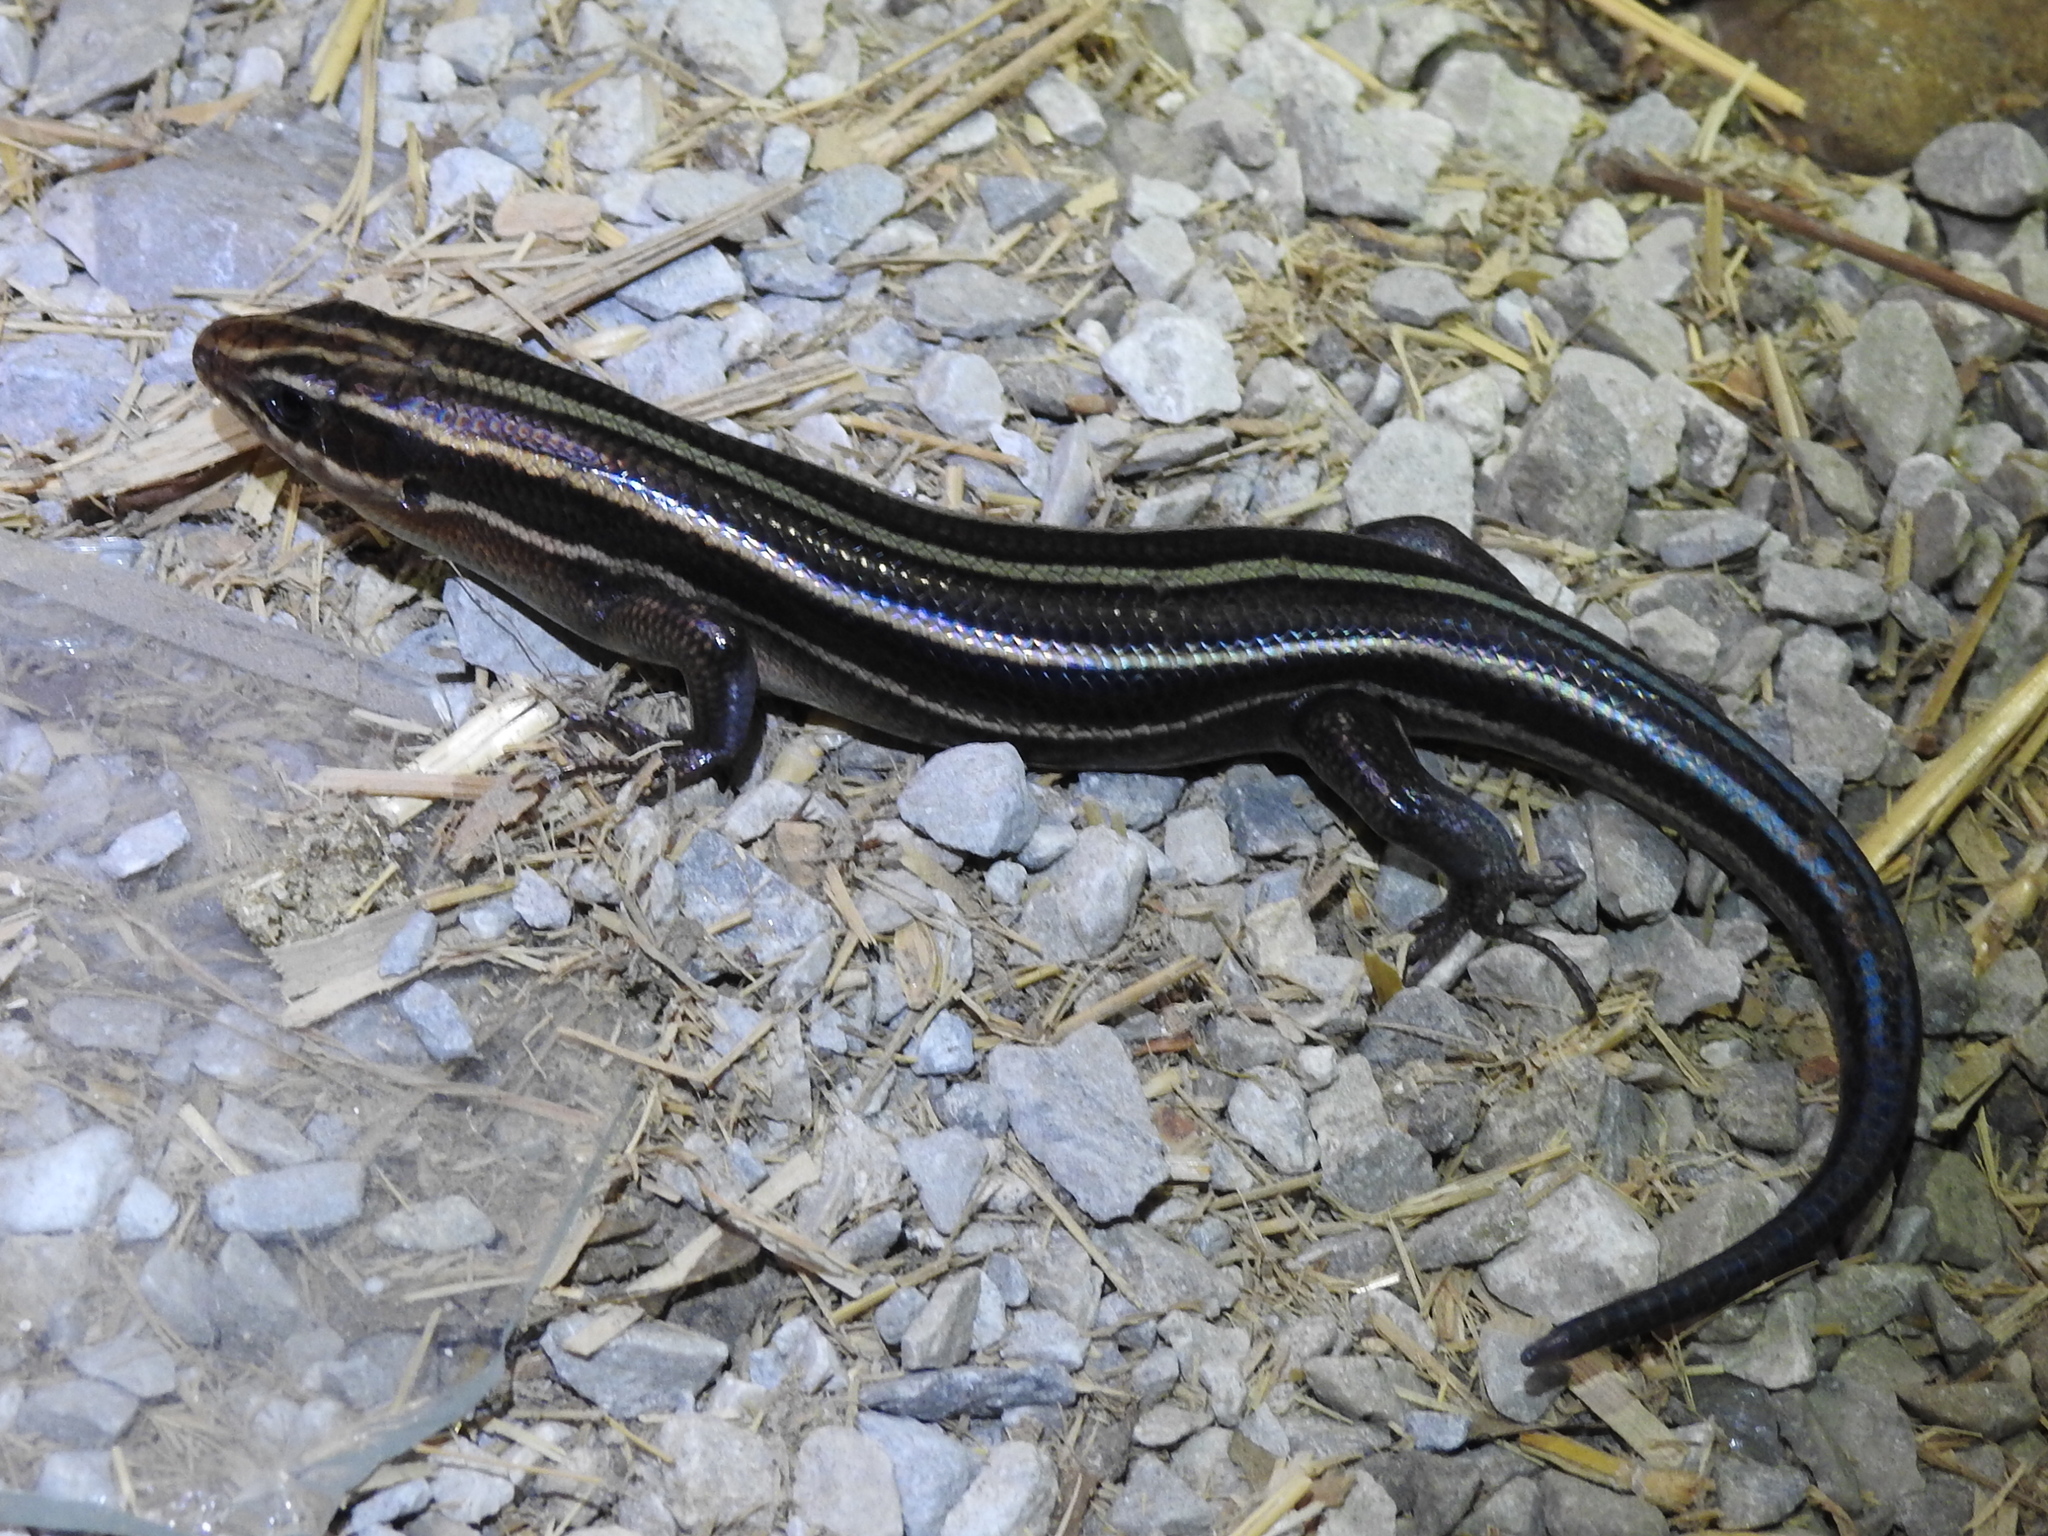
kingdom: Animalia
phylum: Chordata
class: Squamata
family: Scincidae
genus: Plestiodon
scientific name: Plestiodon fasciatus
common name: Five-lined skink
